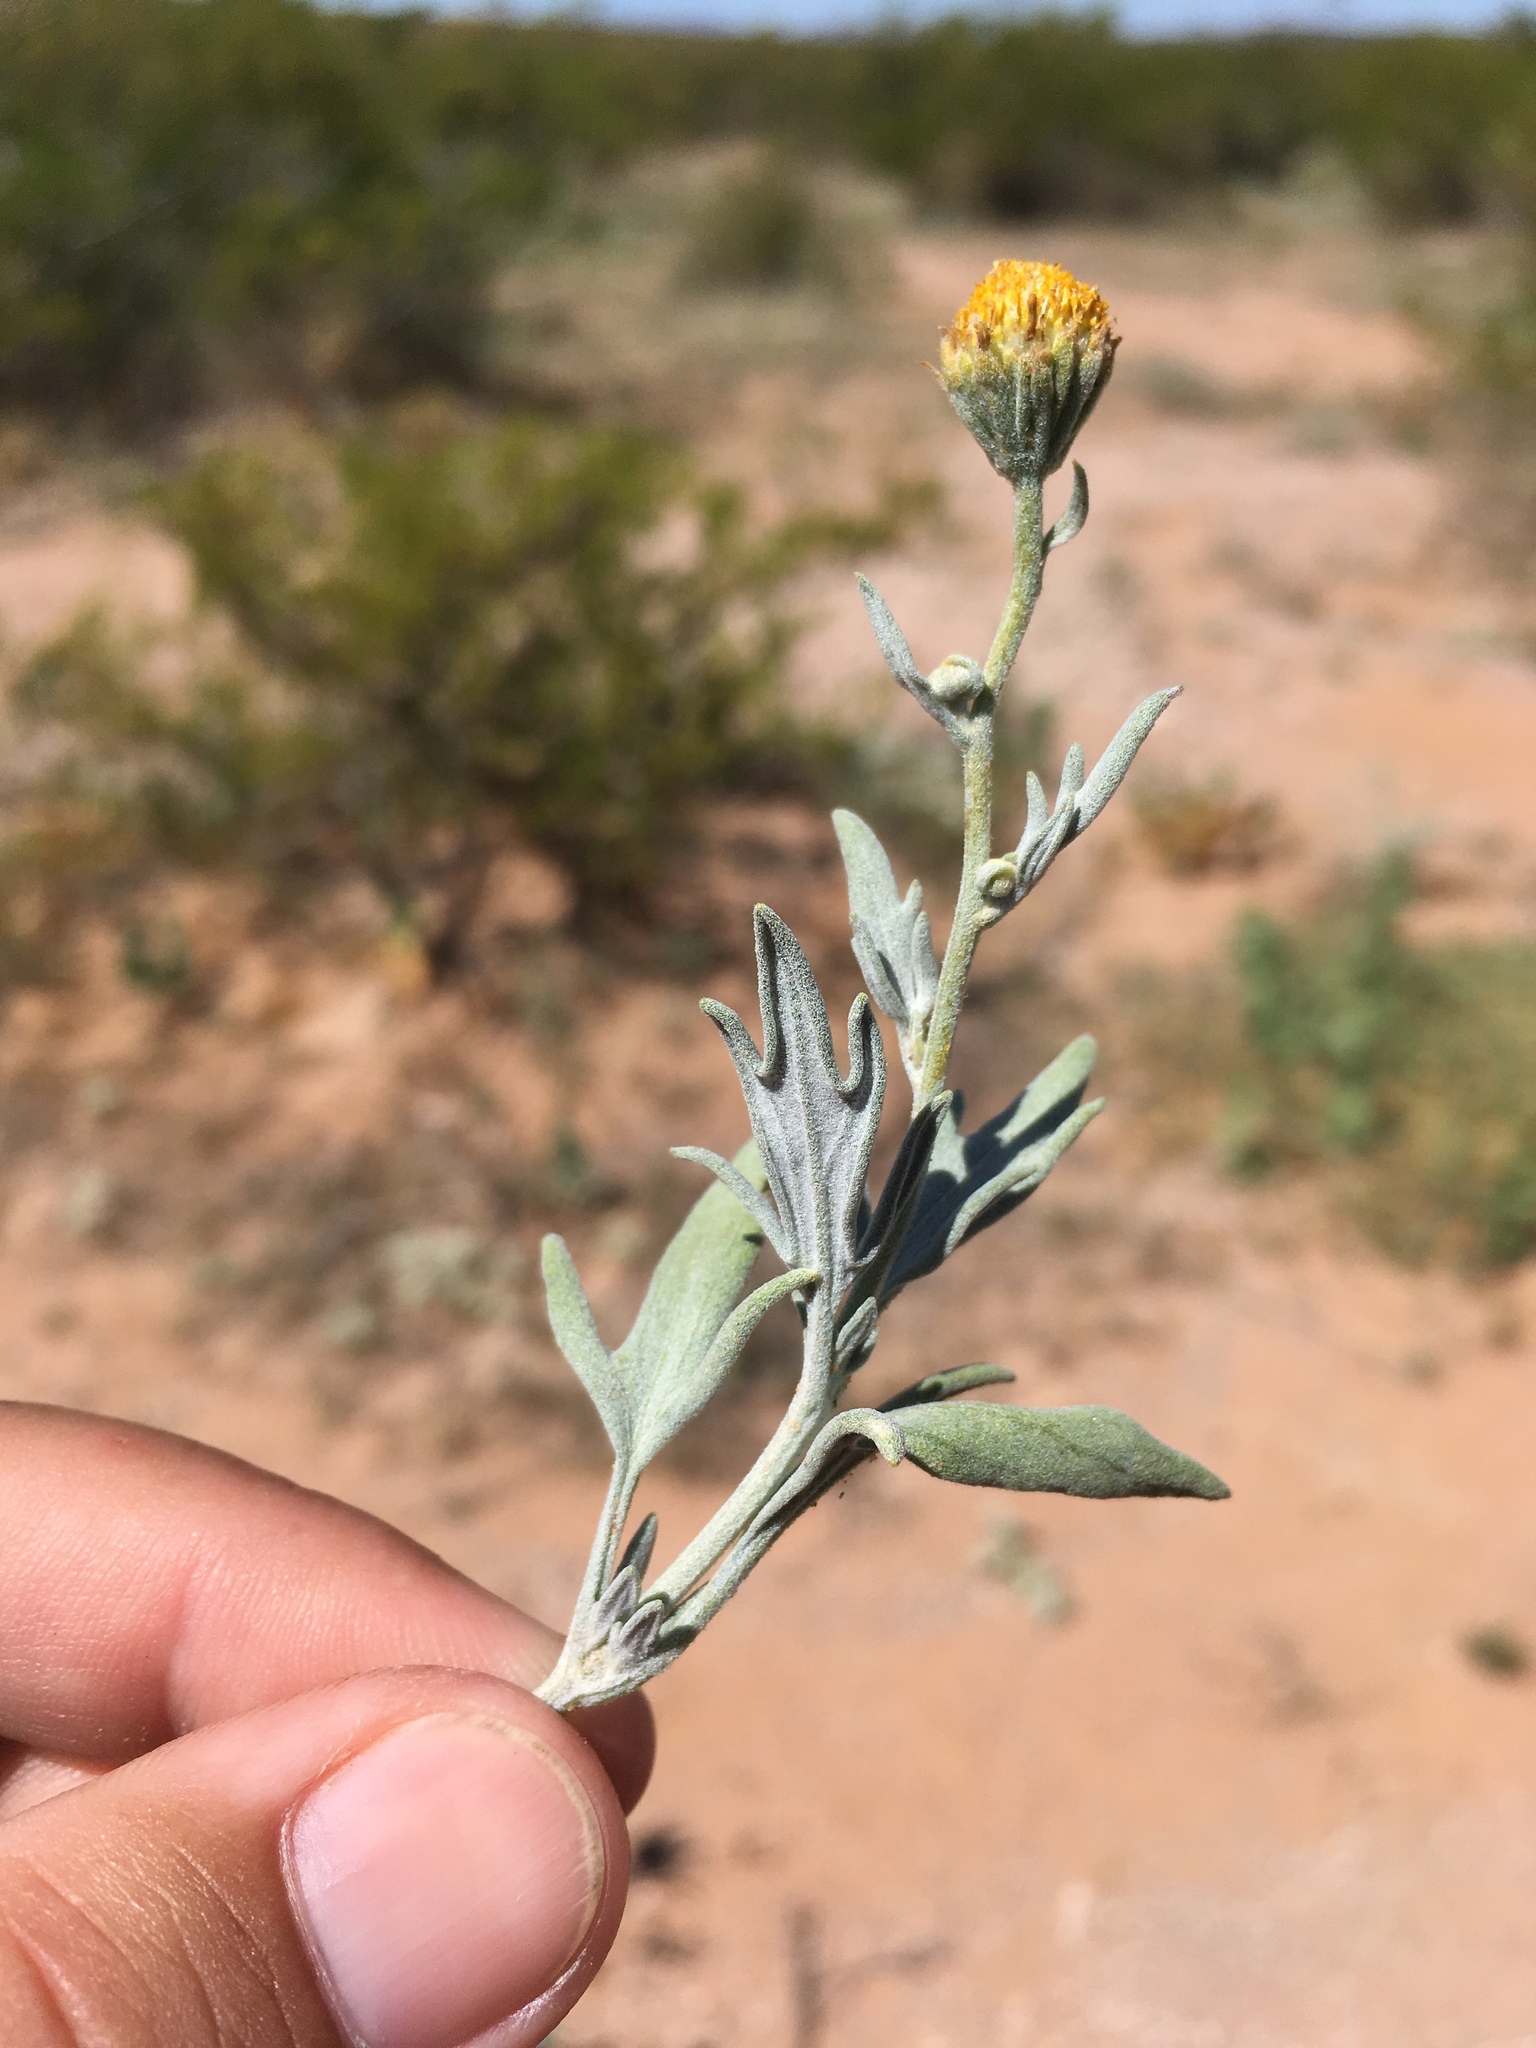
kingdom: Plantae
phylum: Tracheophyta
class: Magnoliopsida
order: Asterales
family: Asteraceae
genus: Picradeniopsis
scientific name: Picradeniopsis absinthifolia
